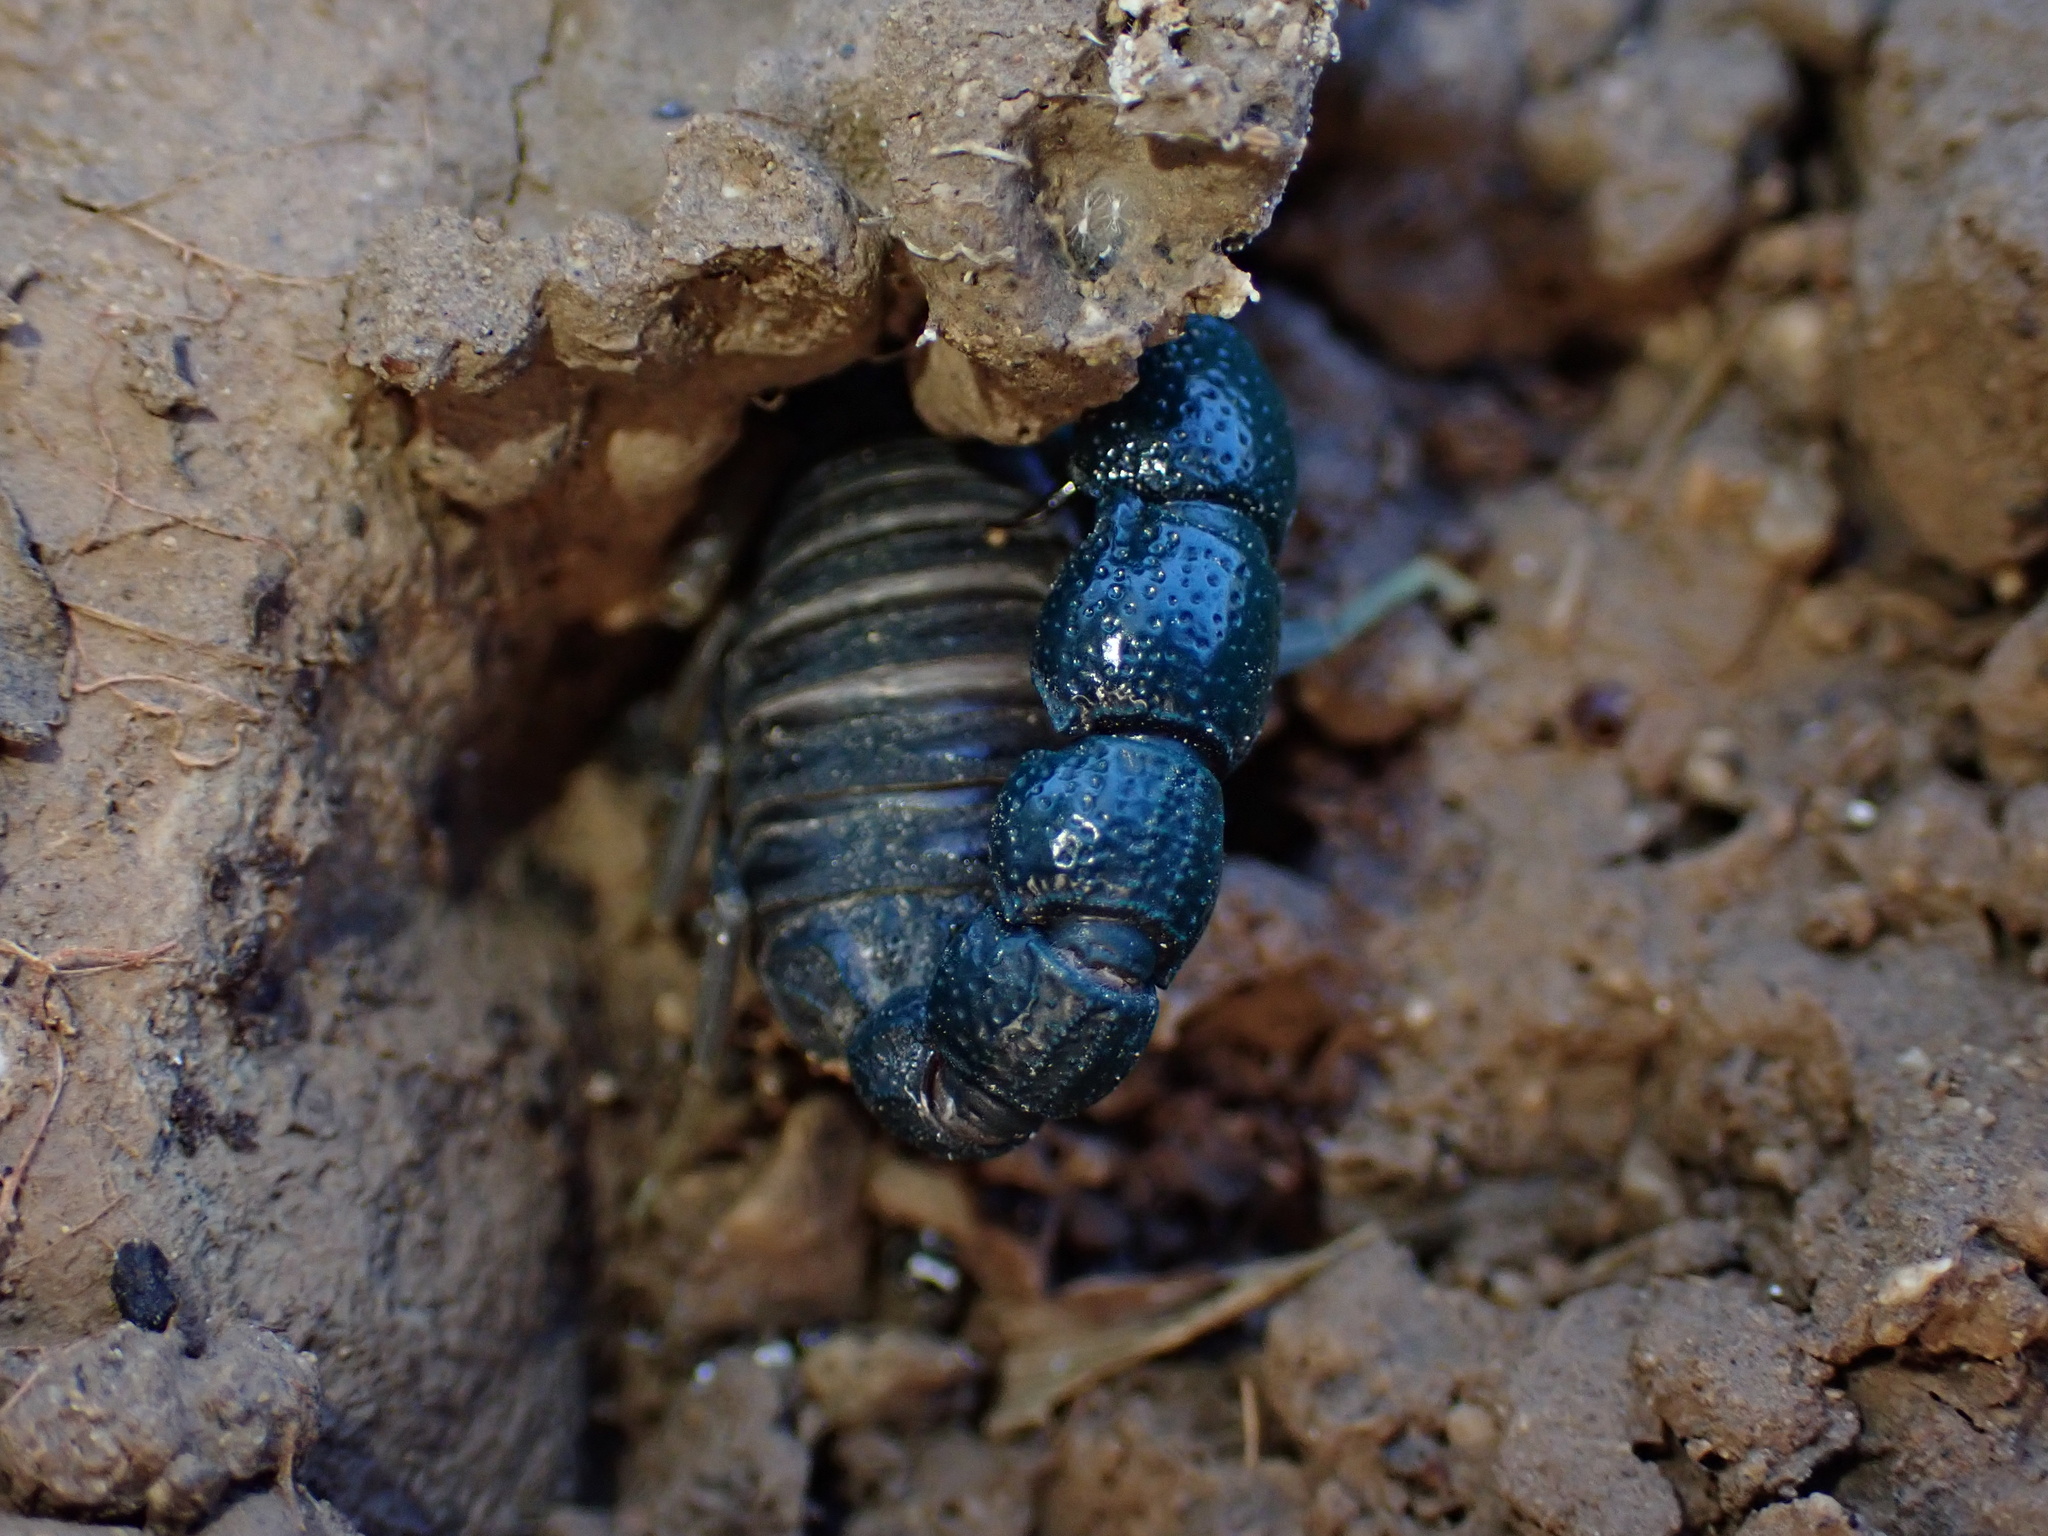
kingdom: Animalia
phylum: Arthropoda
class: Arachnida
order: Scorpiones
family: Buthidae
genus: Orthochirus
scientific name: Orthochirus farzanpayi
